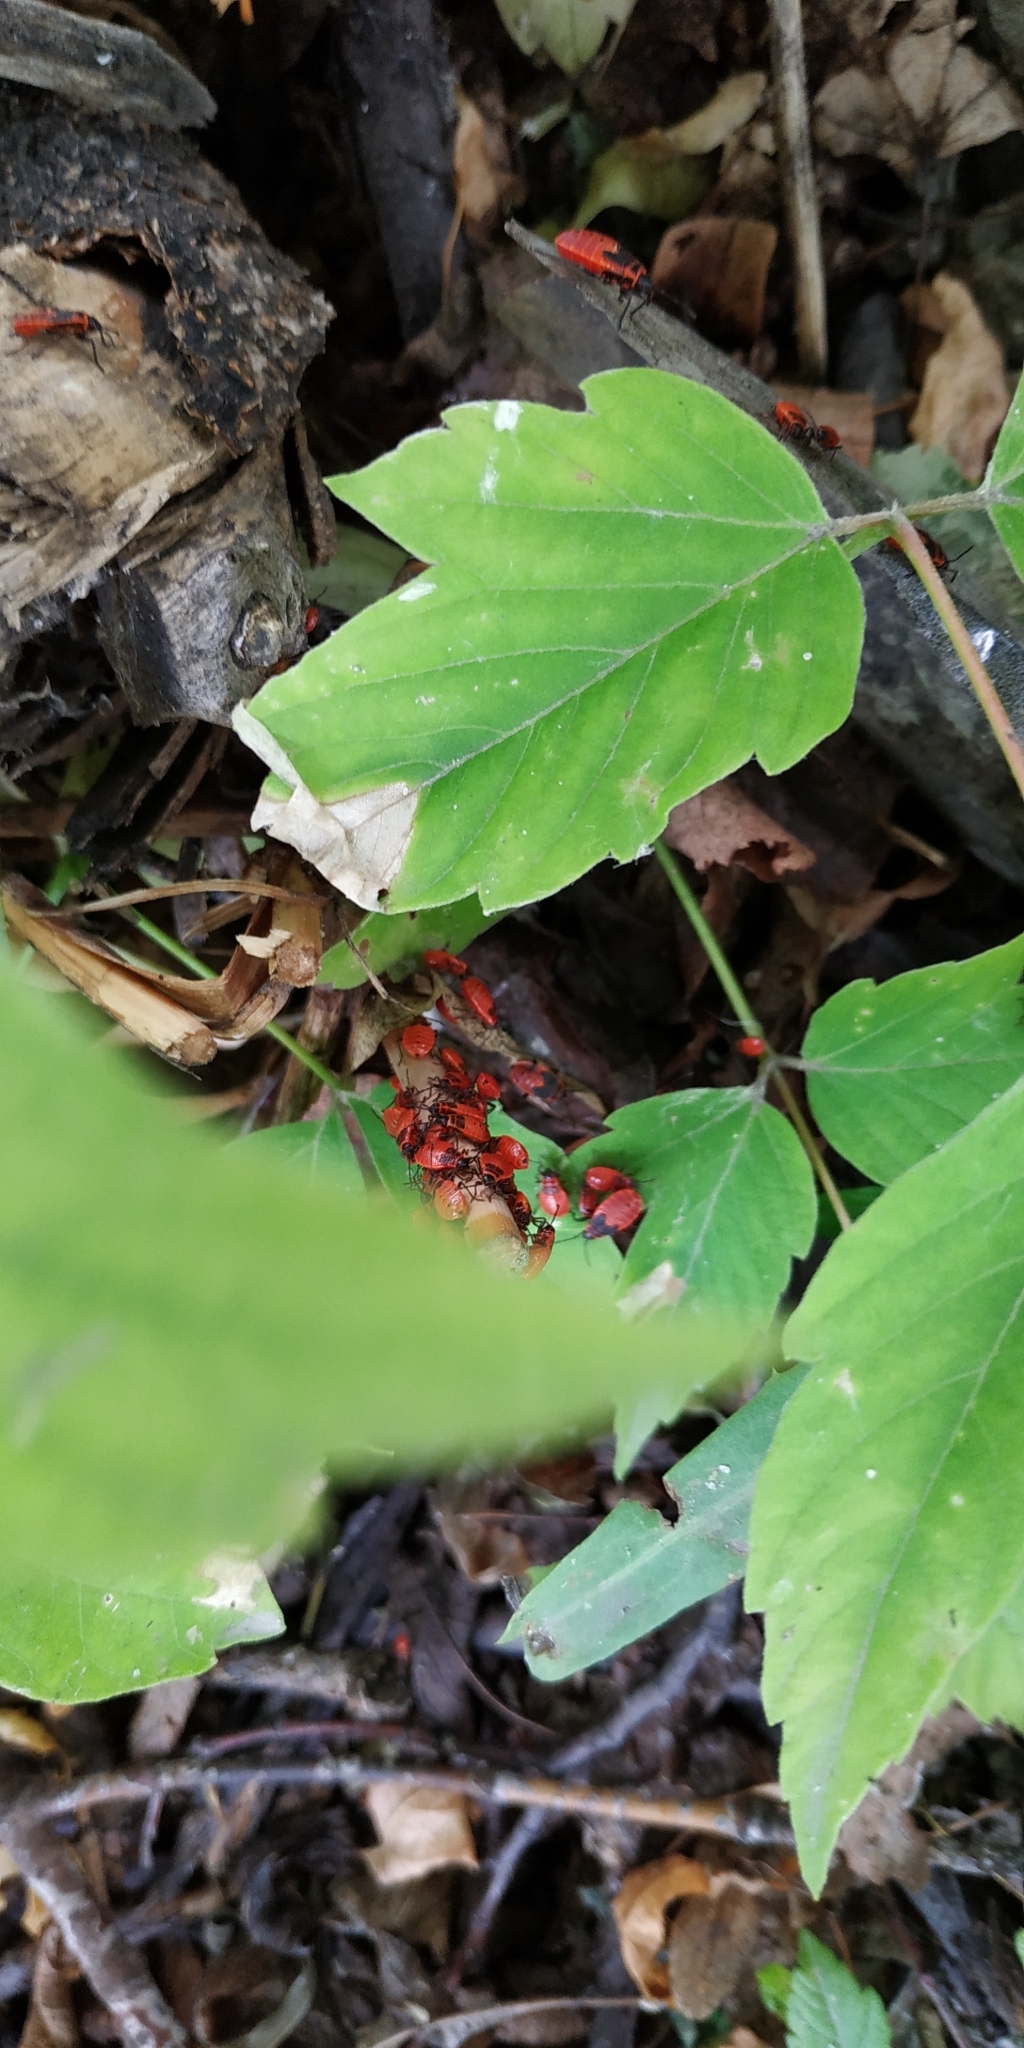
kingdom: Animalia
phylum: Arthropoda
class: Insecta
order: Hemiptera
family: Pyrrhocoridae
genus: Pyrrhocoris
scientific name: Pyrrhocoris apterus
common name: Firebug
